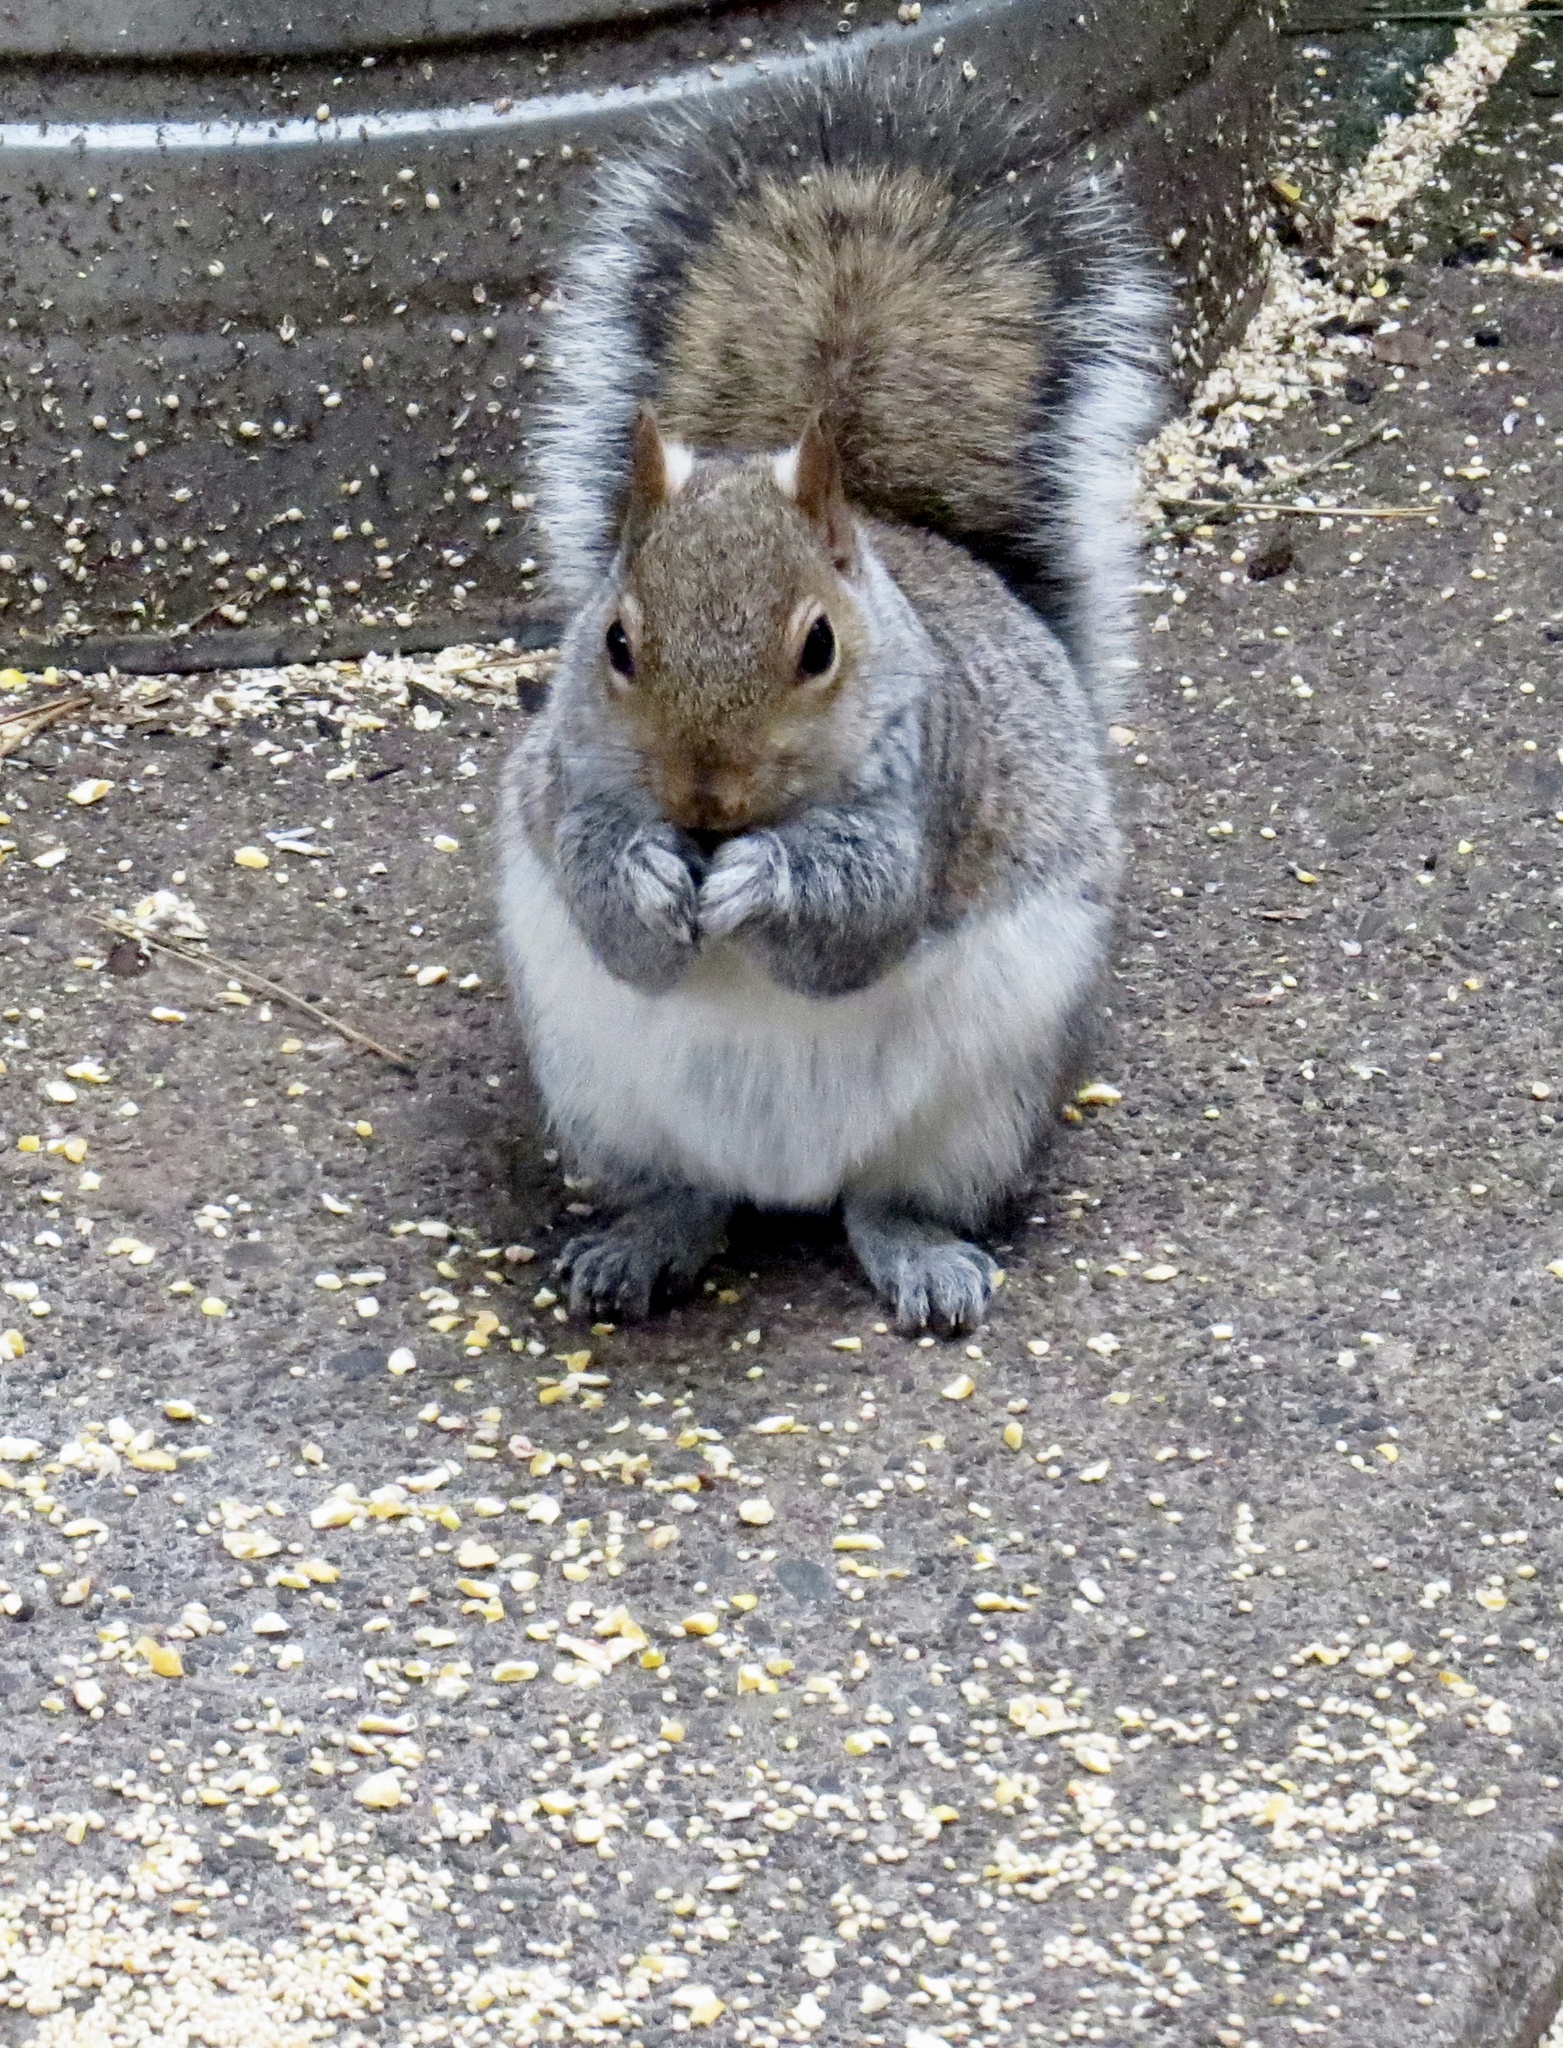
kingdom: Animalia
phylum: Chordata
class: Mammalia
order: Rodentia
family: Sciuridae
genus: Sciurus
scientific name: Sciurus carolinensis
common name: Eastern gray squirrel
